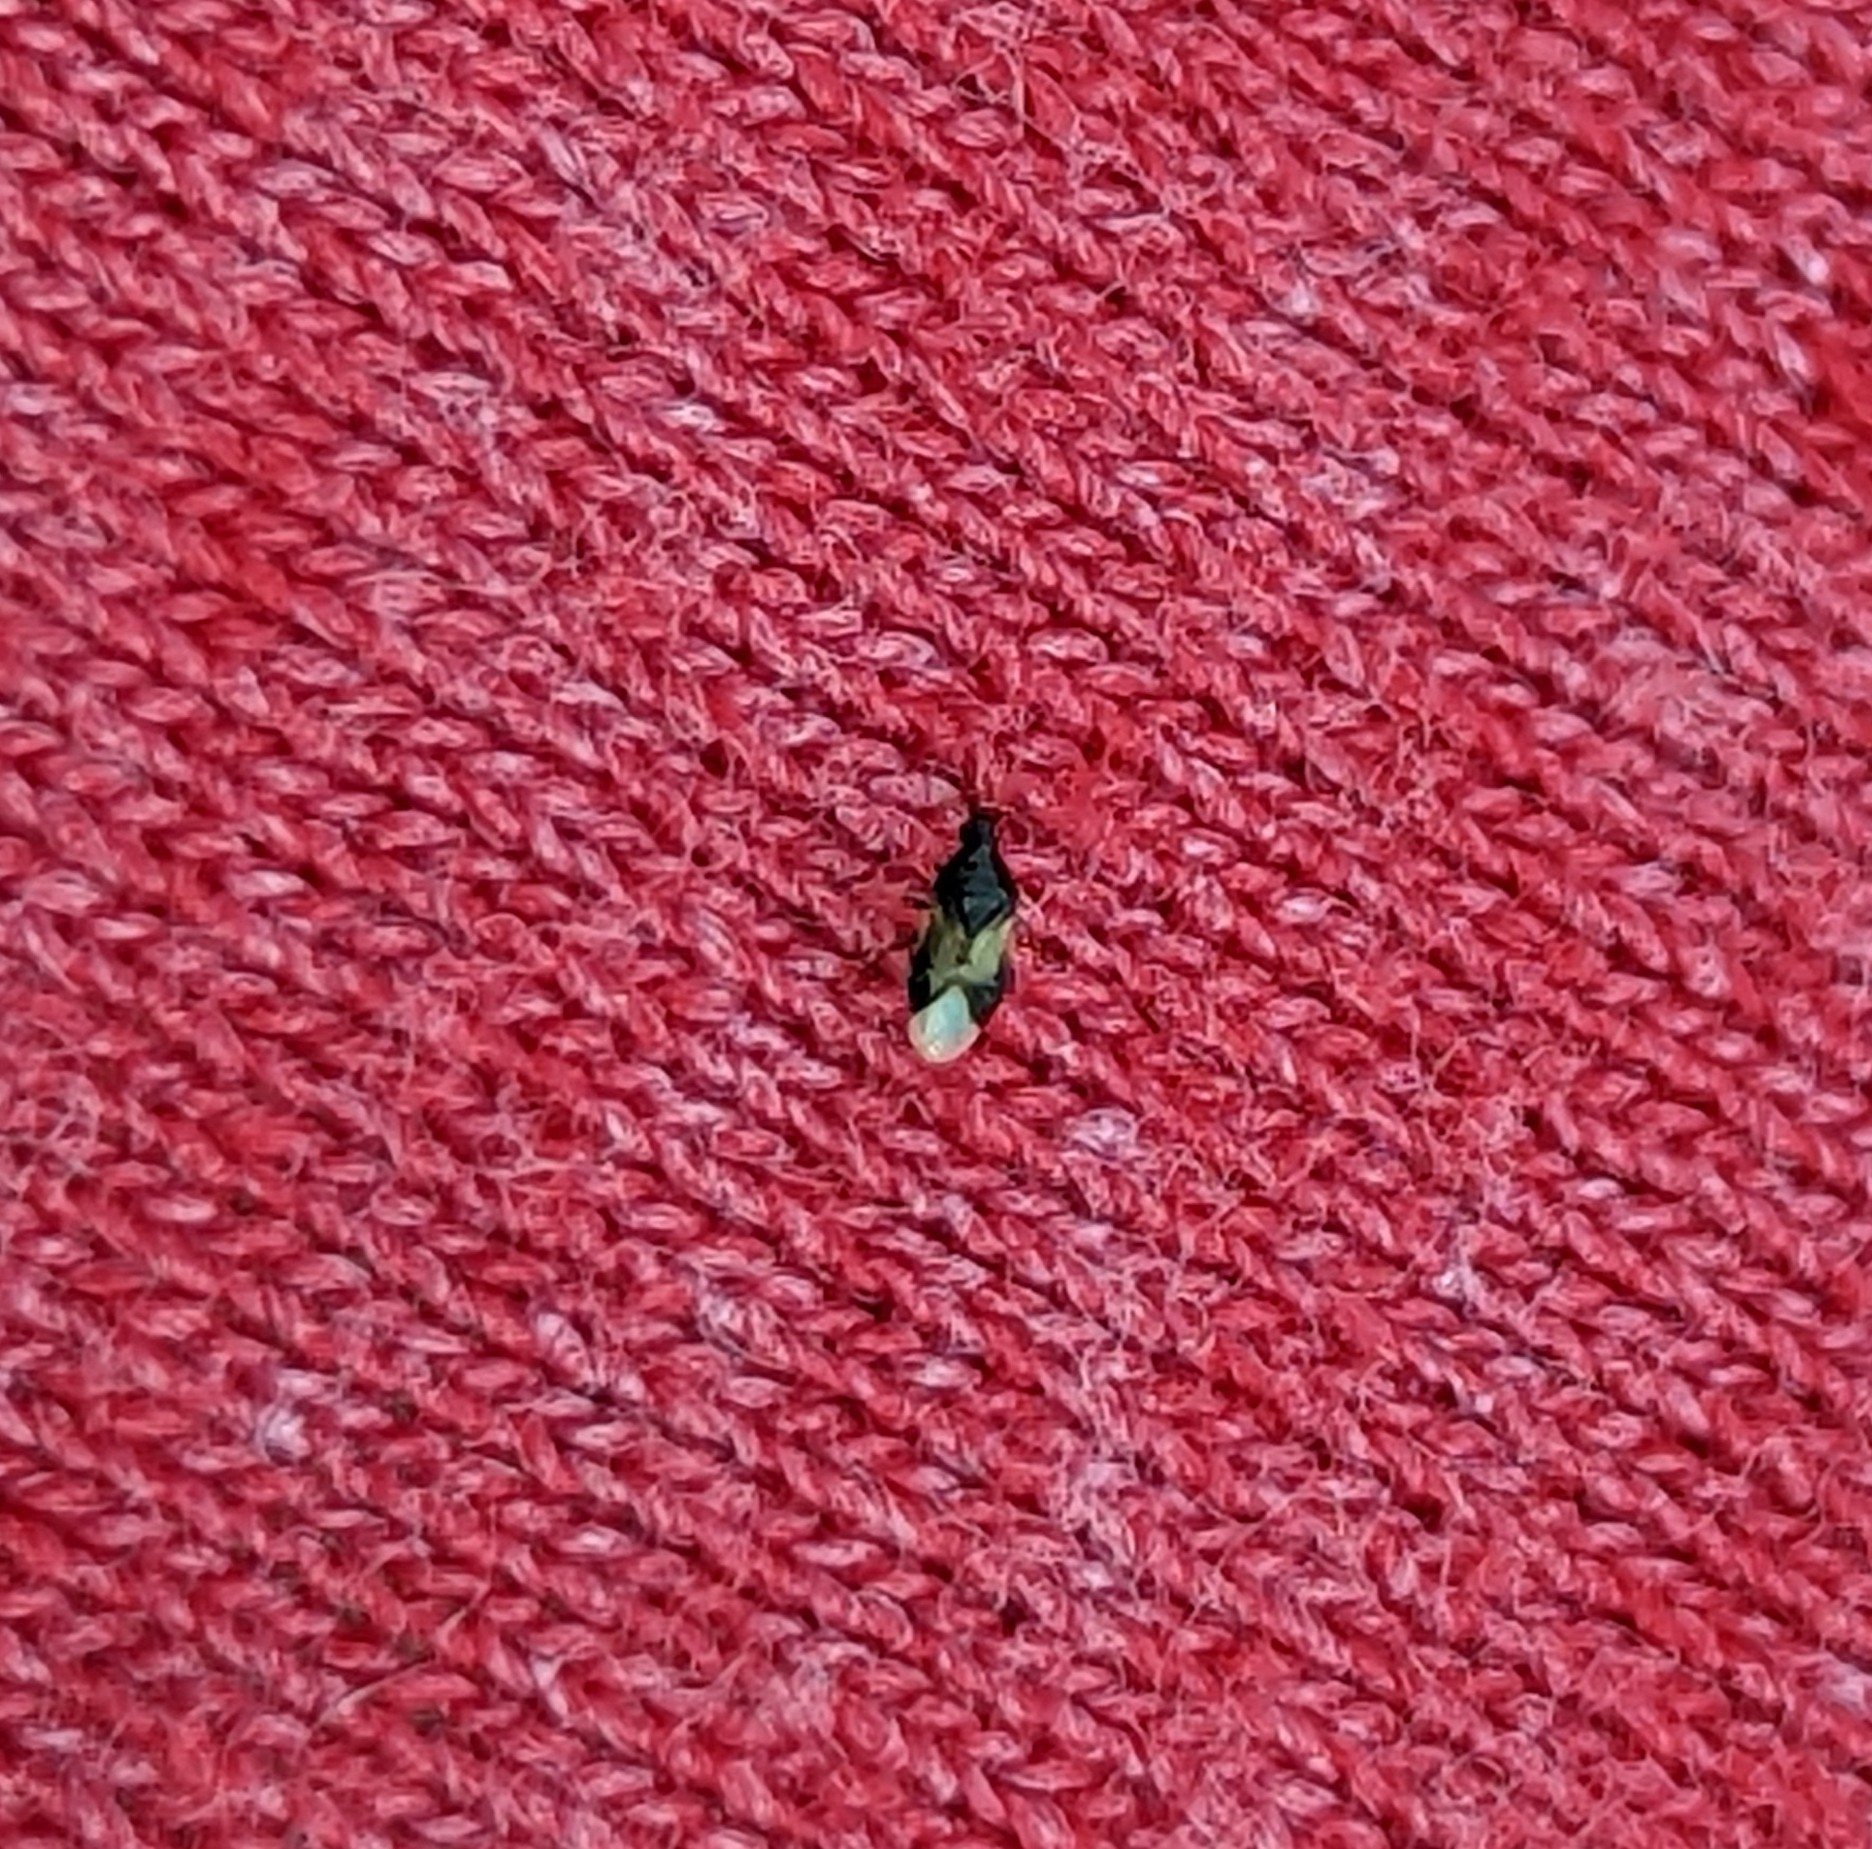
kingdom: Animalia
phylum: Arthropoda
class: Insecta
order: Hemiptera
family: Anthocoridae
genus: Orius
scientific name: Orius insidiosus
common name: Insidious flower bug
